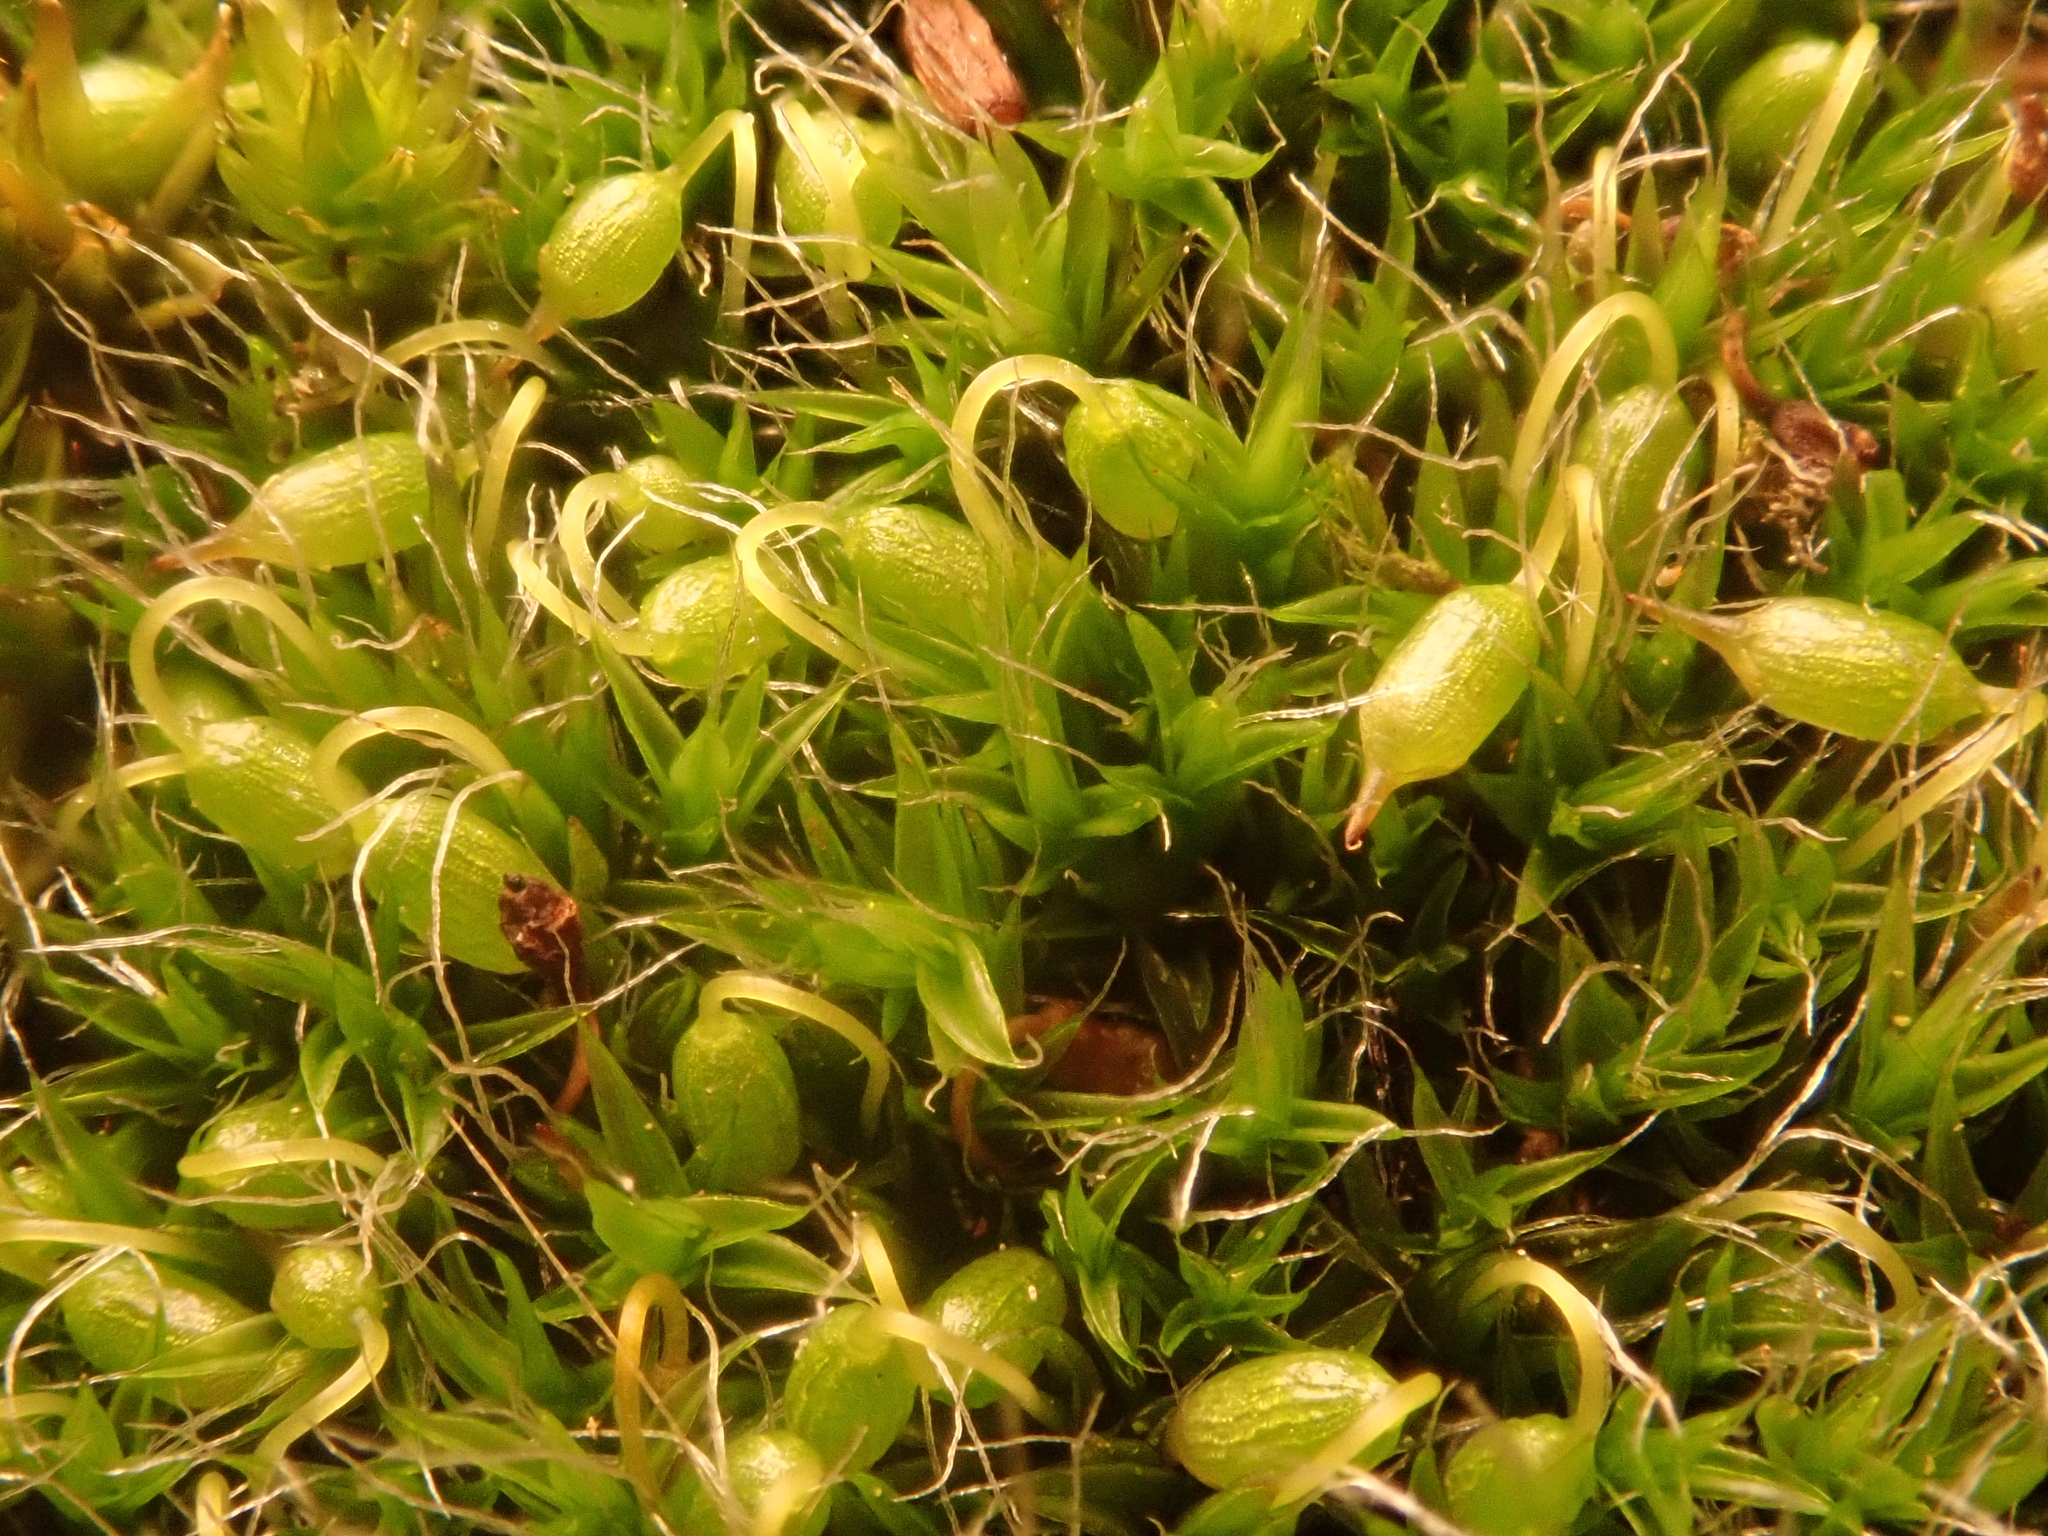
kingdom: Plantae
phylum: Bryophyta
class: Bryopsida
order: Grimmiales
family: Grimmiaceae
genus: Grimmia
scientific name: Grimmia pulvinata
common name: Grey-cushioned grimmia
